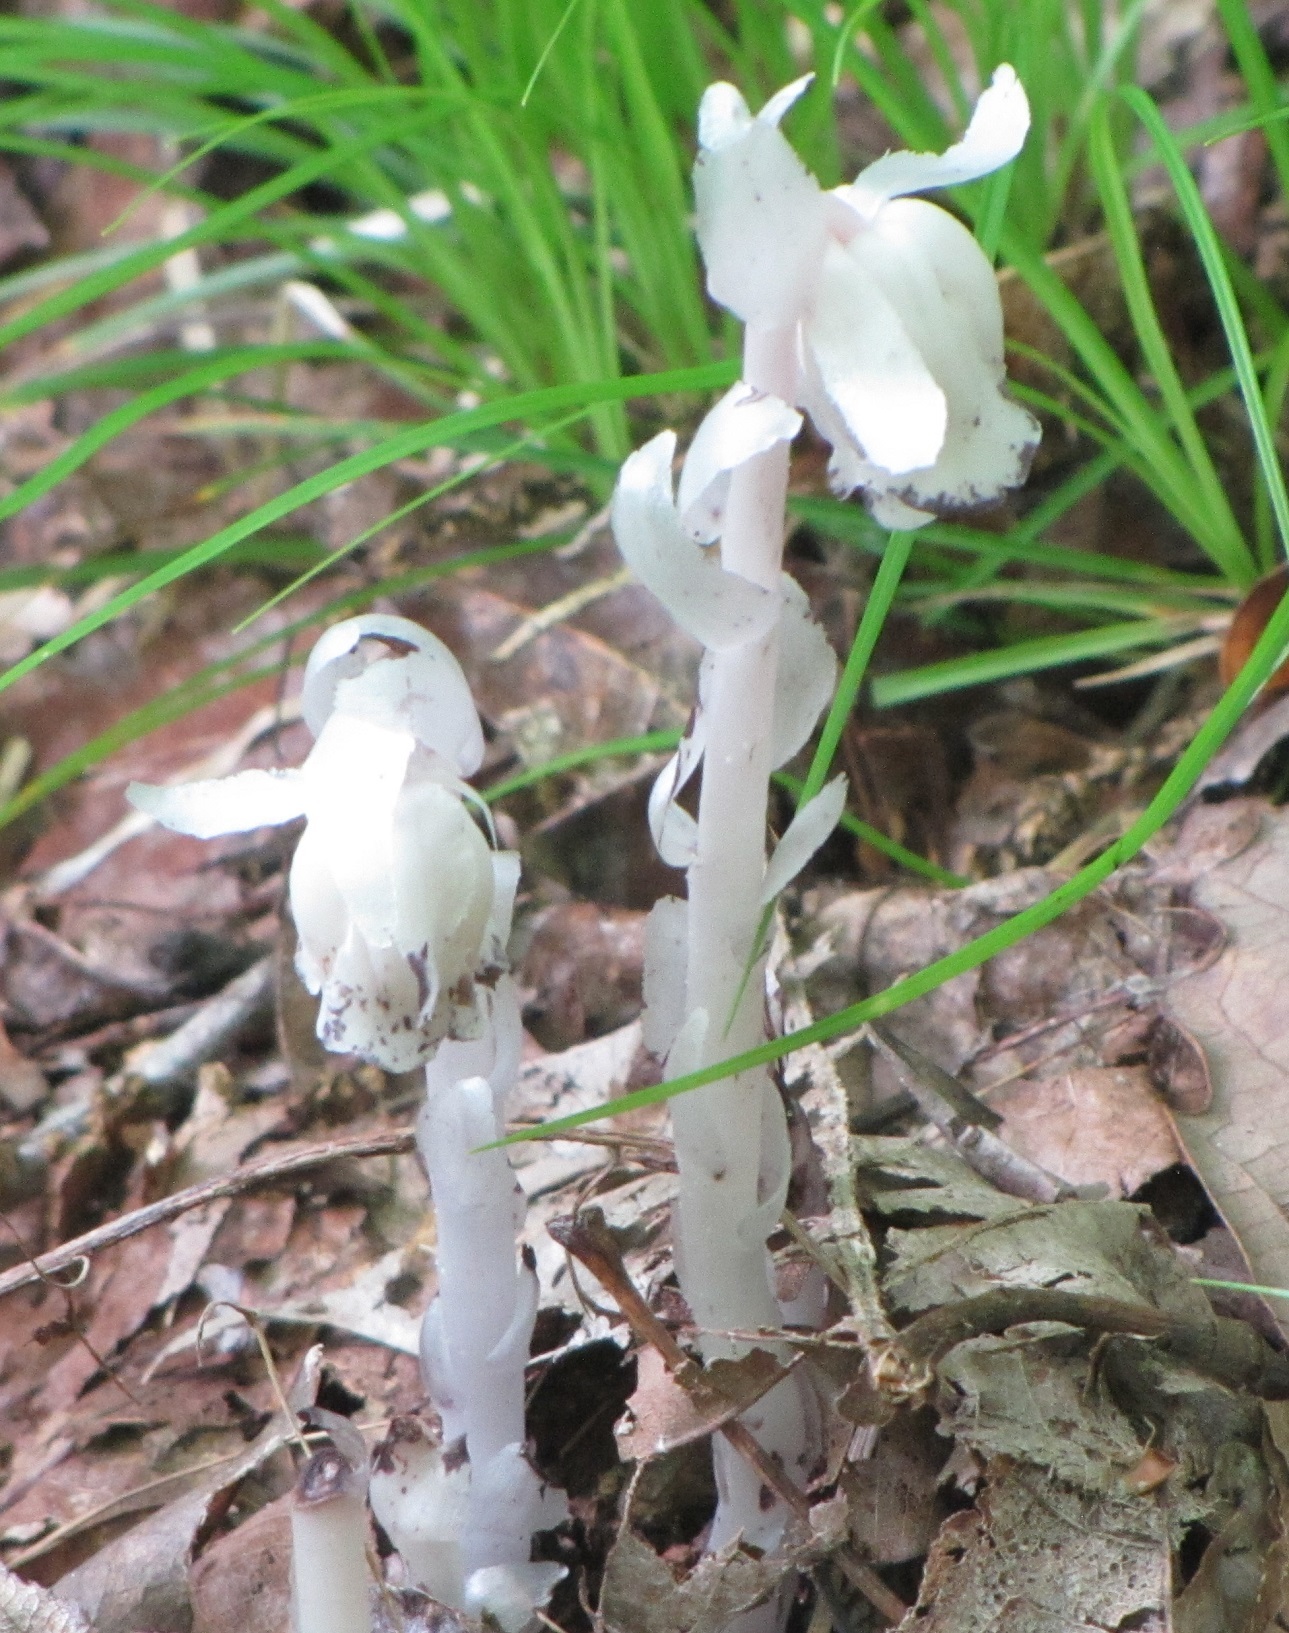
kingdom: Plantae
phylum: Tracheophyta
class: Magnoliopsida
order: Ericales
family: Ericaceae
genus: Monotropa
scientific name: Monotropa uniflora
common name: Convulsion root
